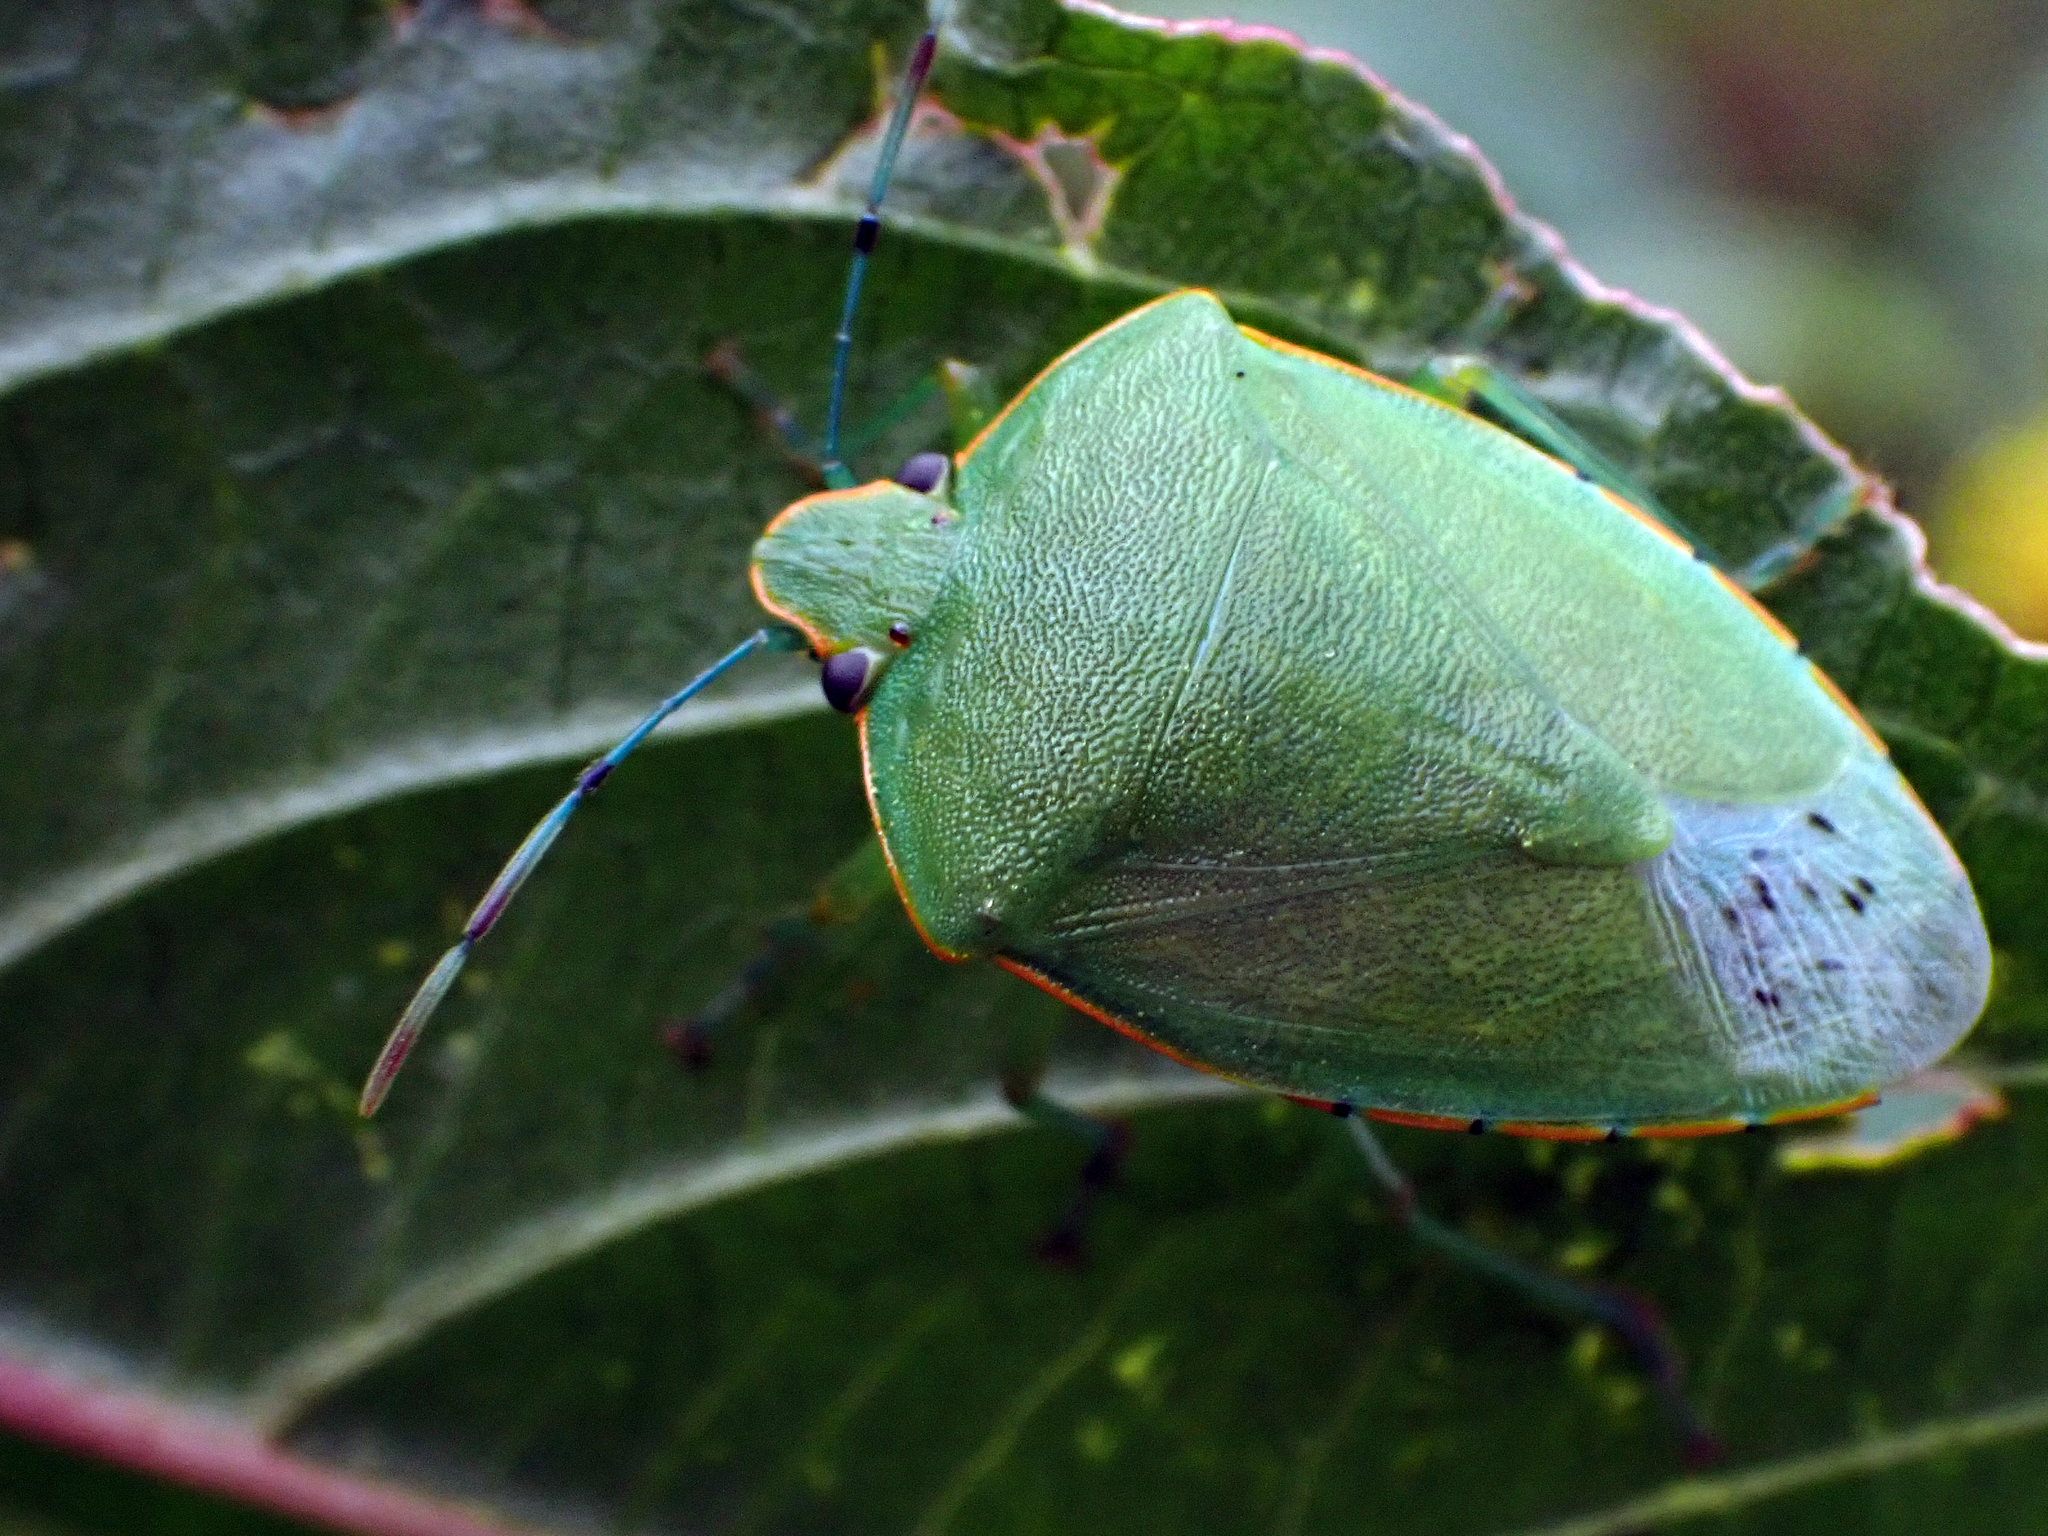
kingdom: Animalia
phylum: Arthropoda
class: Insecta
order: Hemiptera
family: Pentatomidae
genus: Acrosternum
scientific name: Acrosternum marginatum
